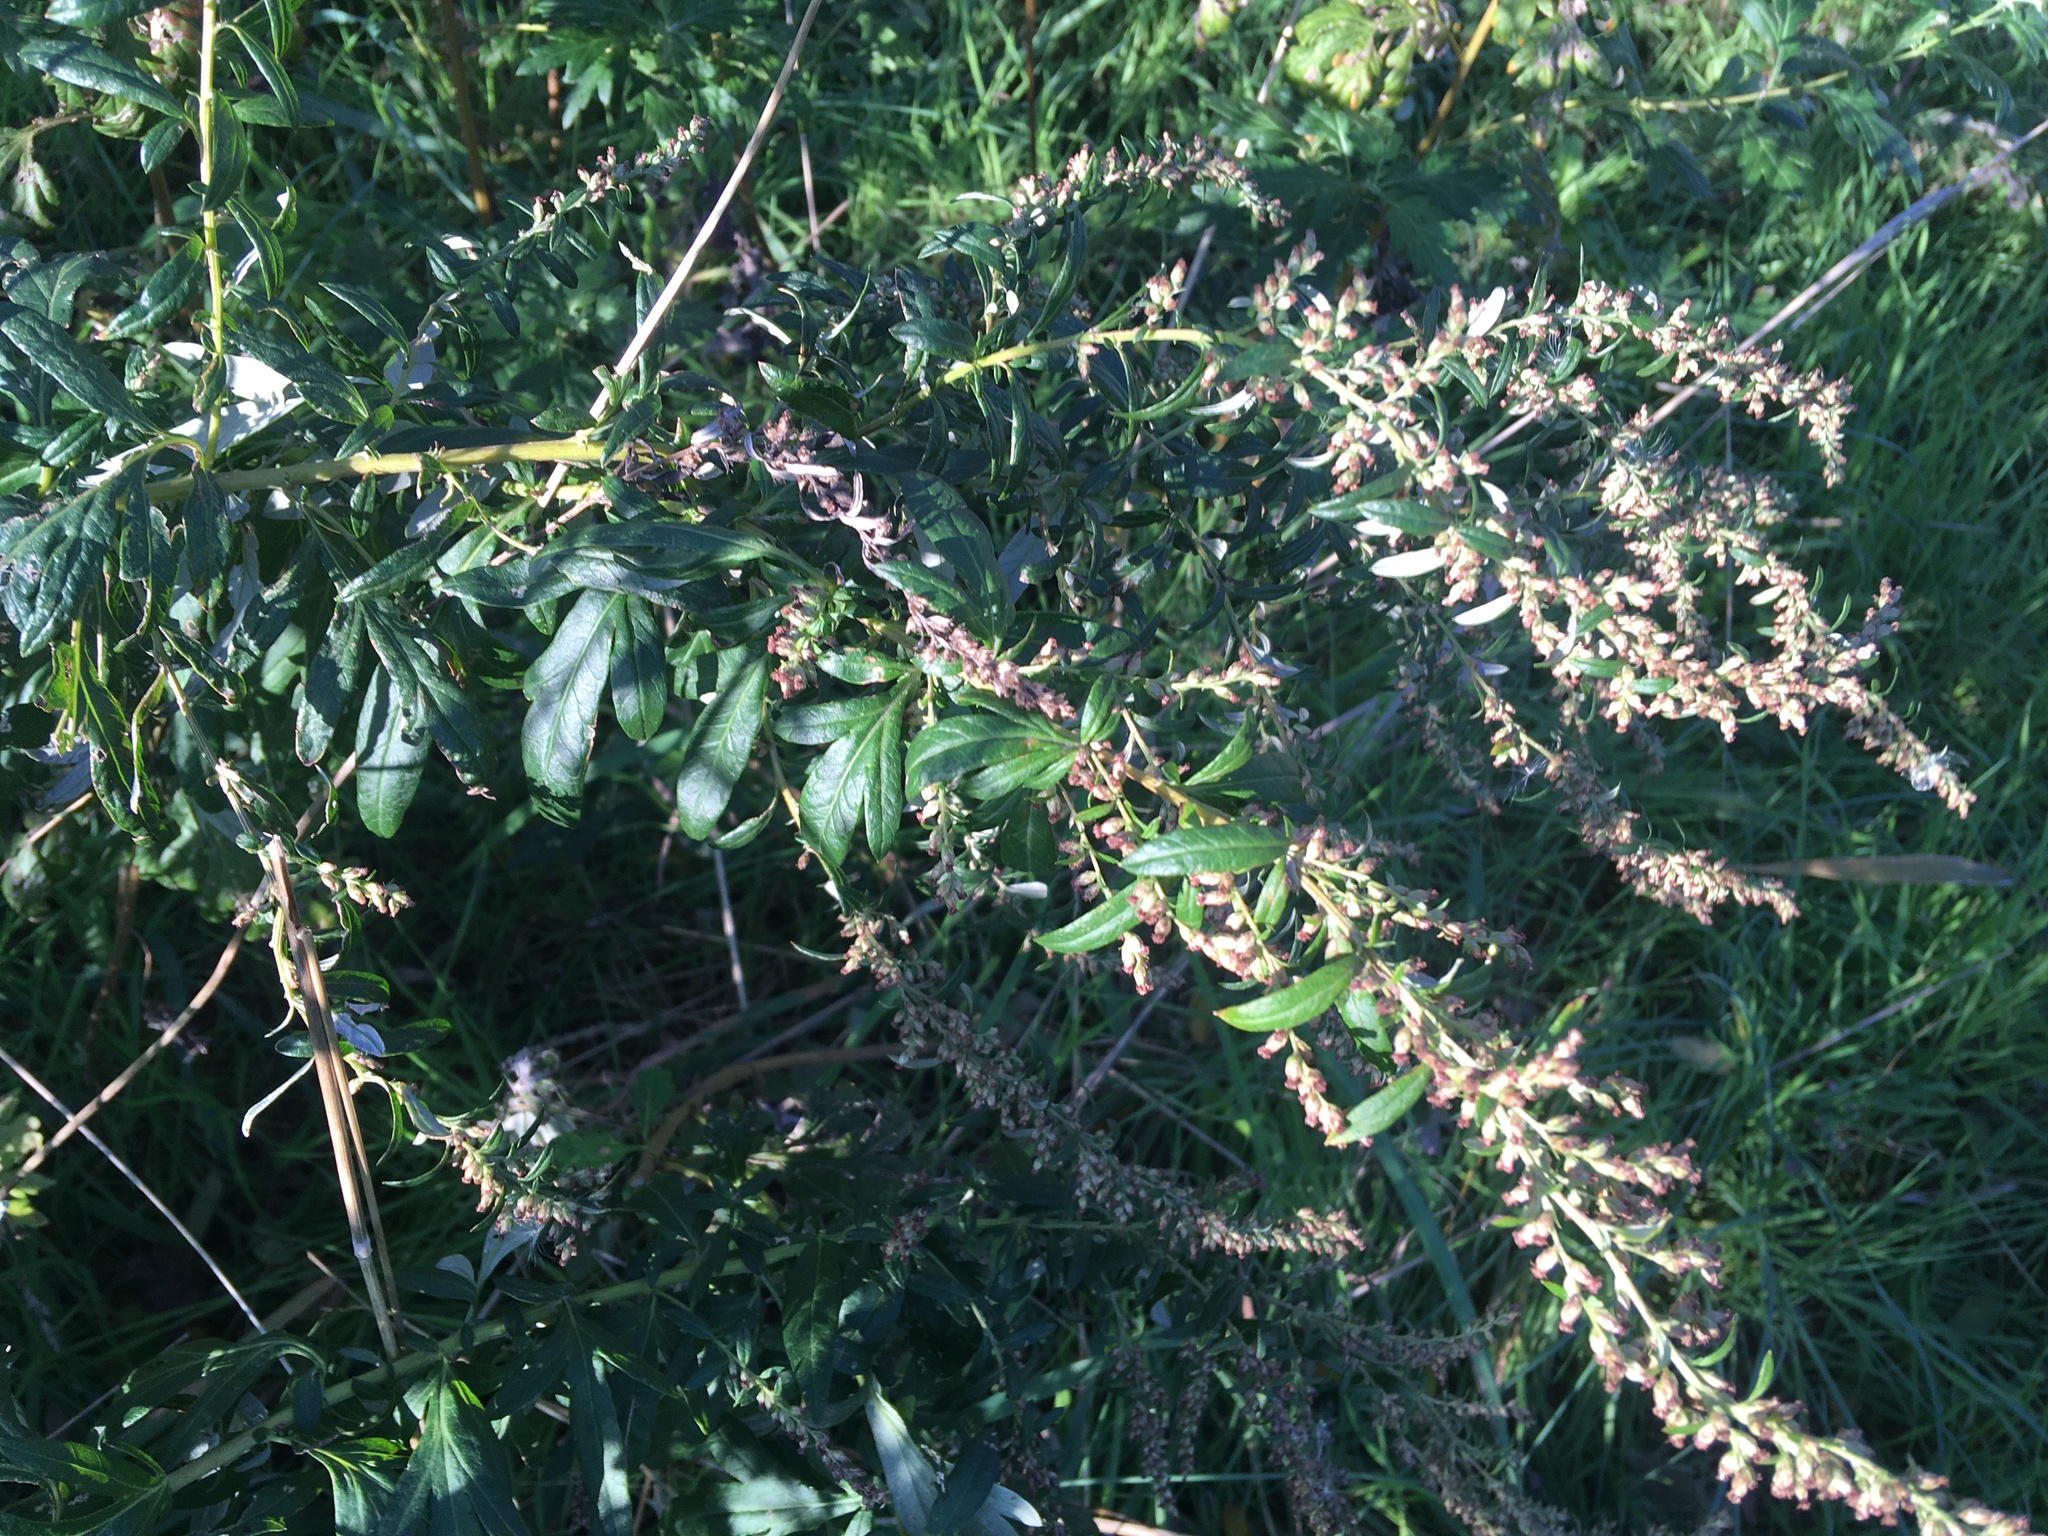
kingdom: Plantae
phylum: Tracheophyta
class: Magnoliopsida
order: Asterales
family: Asteraceae
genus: Artemisia
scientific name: Artemisia vulgaris
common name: Mugwort
